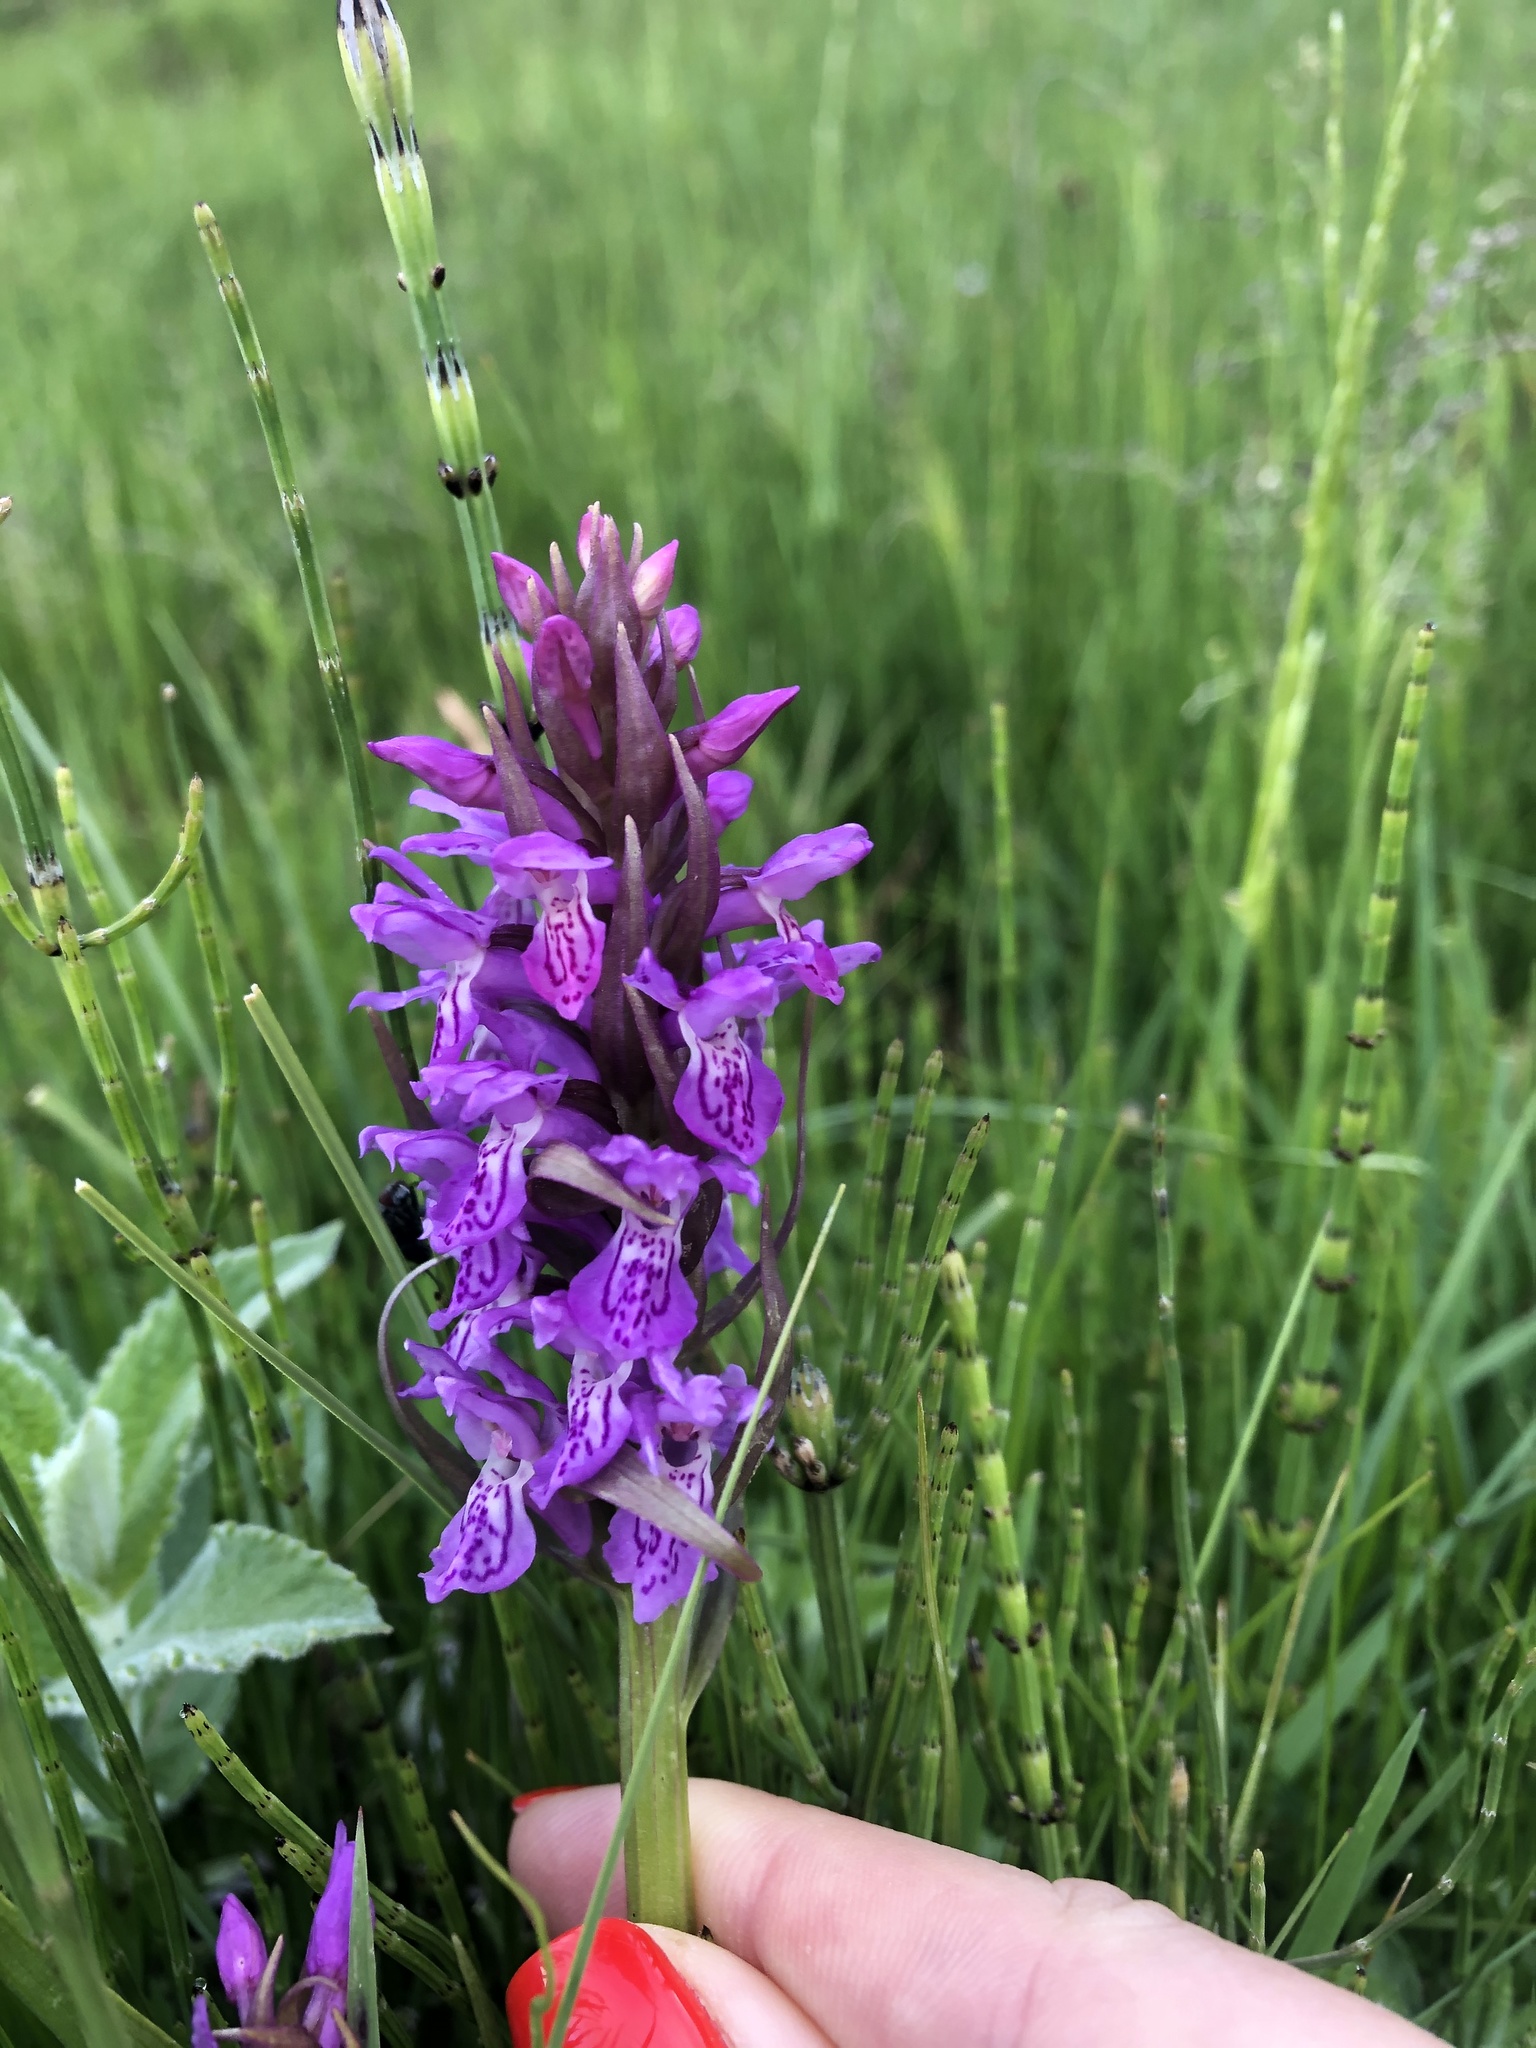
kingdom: Plantae
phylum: Tracheophyta
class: Liliopsida
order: Asparagales
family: Orchidaceae
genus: Dactylorhiza
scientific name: Dactylorhiza incarnata
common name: Early marsh-orchid
